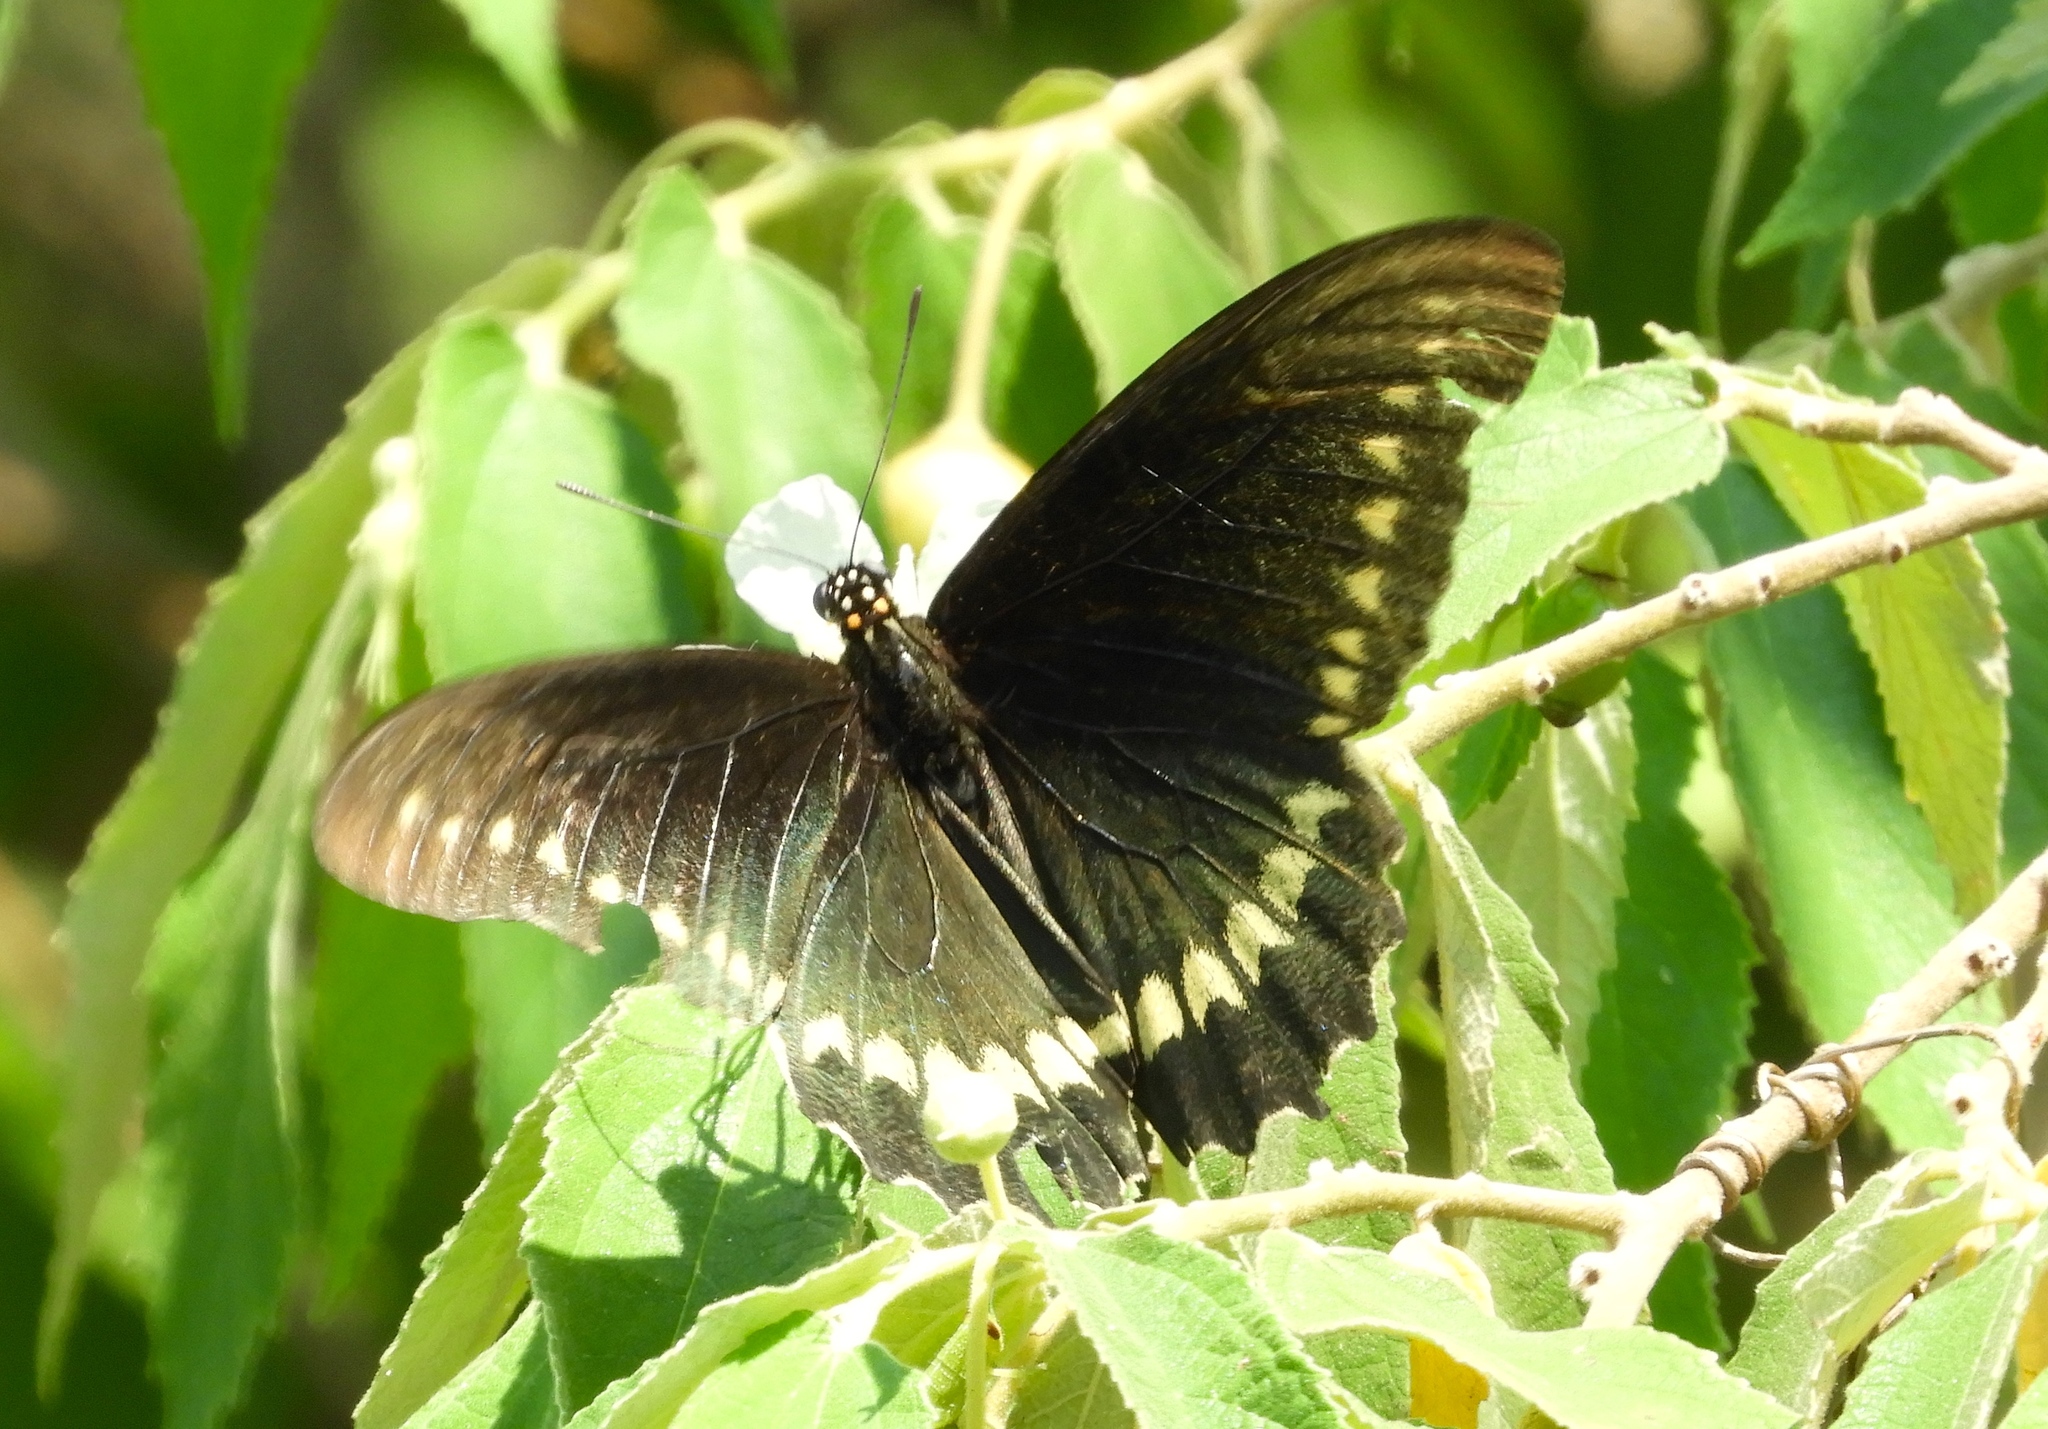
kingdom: Animalia
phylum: Arthropoda
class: Insecta
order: Lepidoptera
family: Papilionidae
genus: Battus
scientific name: Battus polydamas
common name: Polydamas swallowtail
